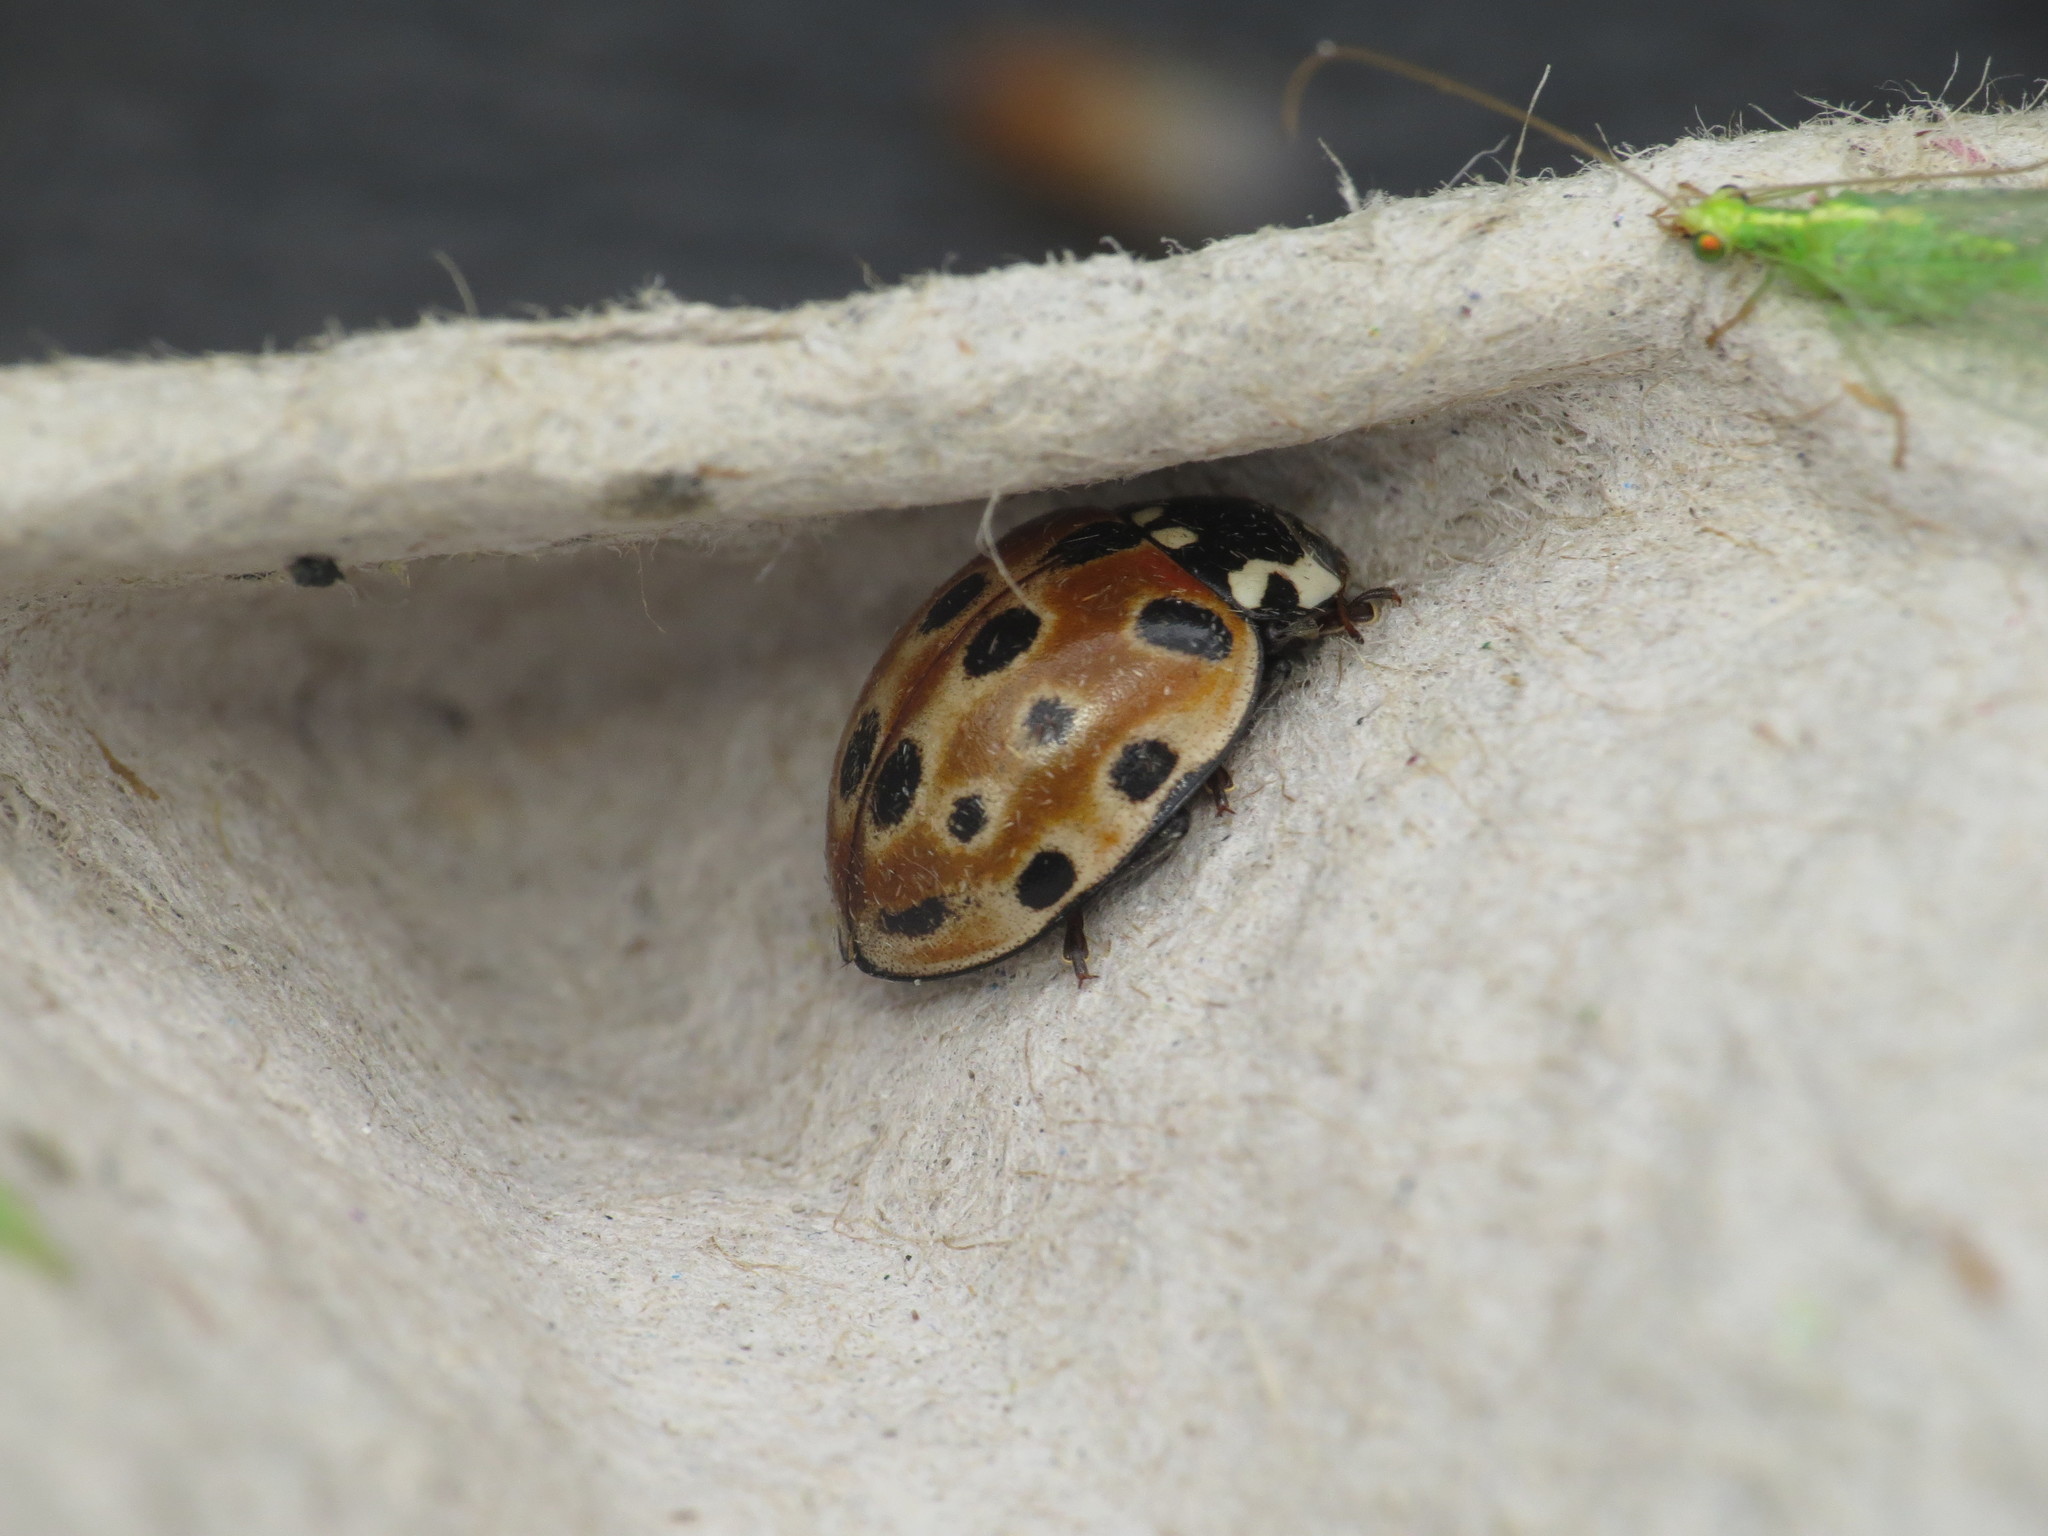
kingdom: Animalia
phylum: Arthropoda
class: Insecta
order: Coleoptera
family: Coccinellidae
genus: Anatis
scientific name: Anatis ocellata
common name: Eyed ladybird
